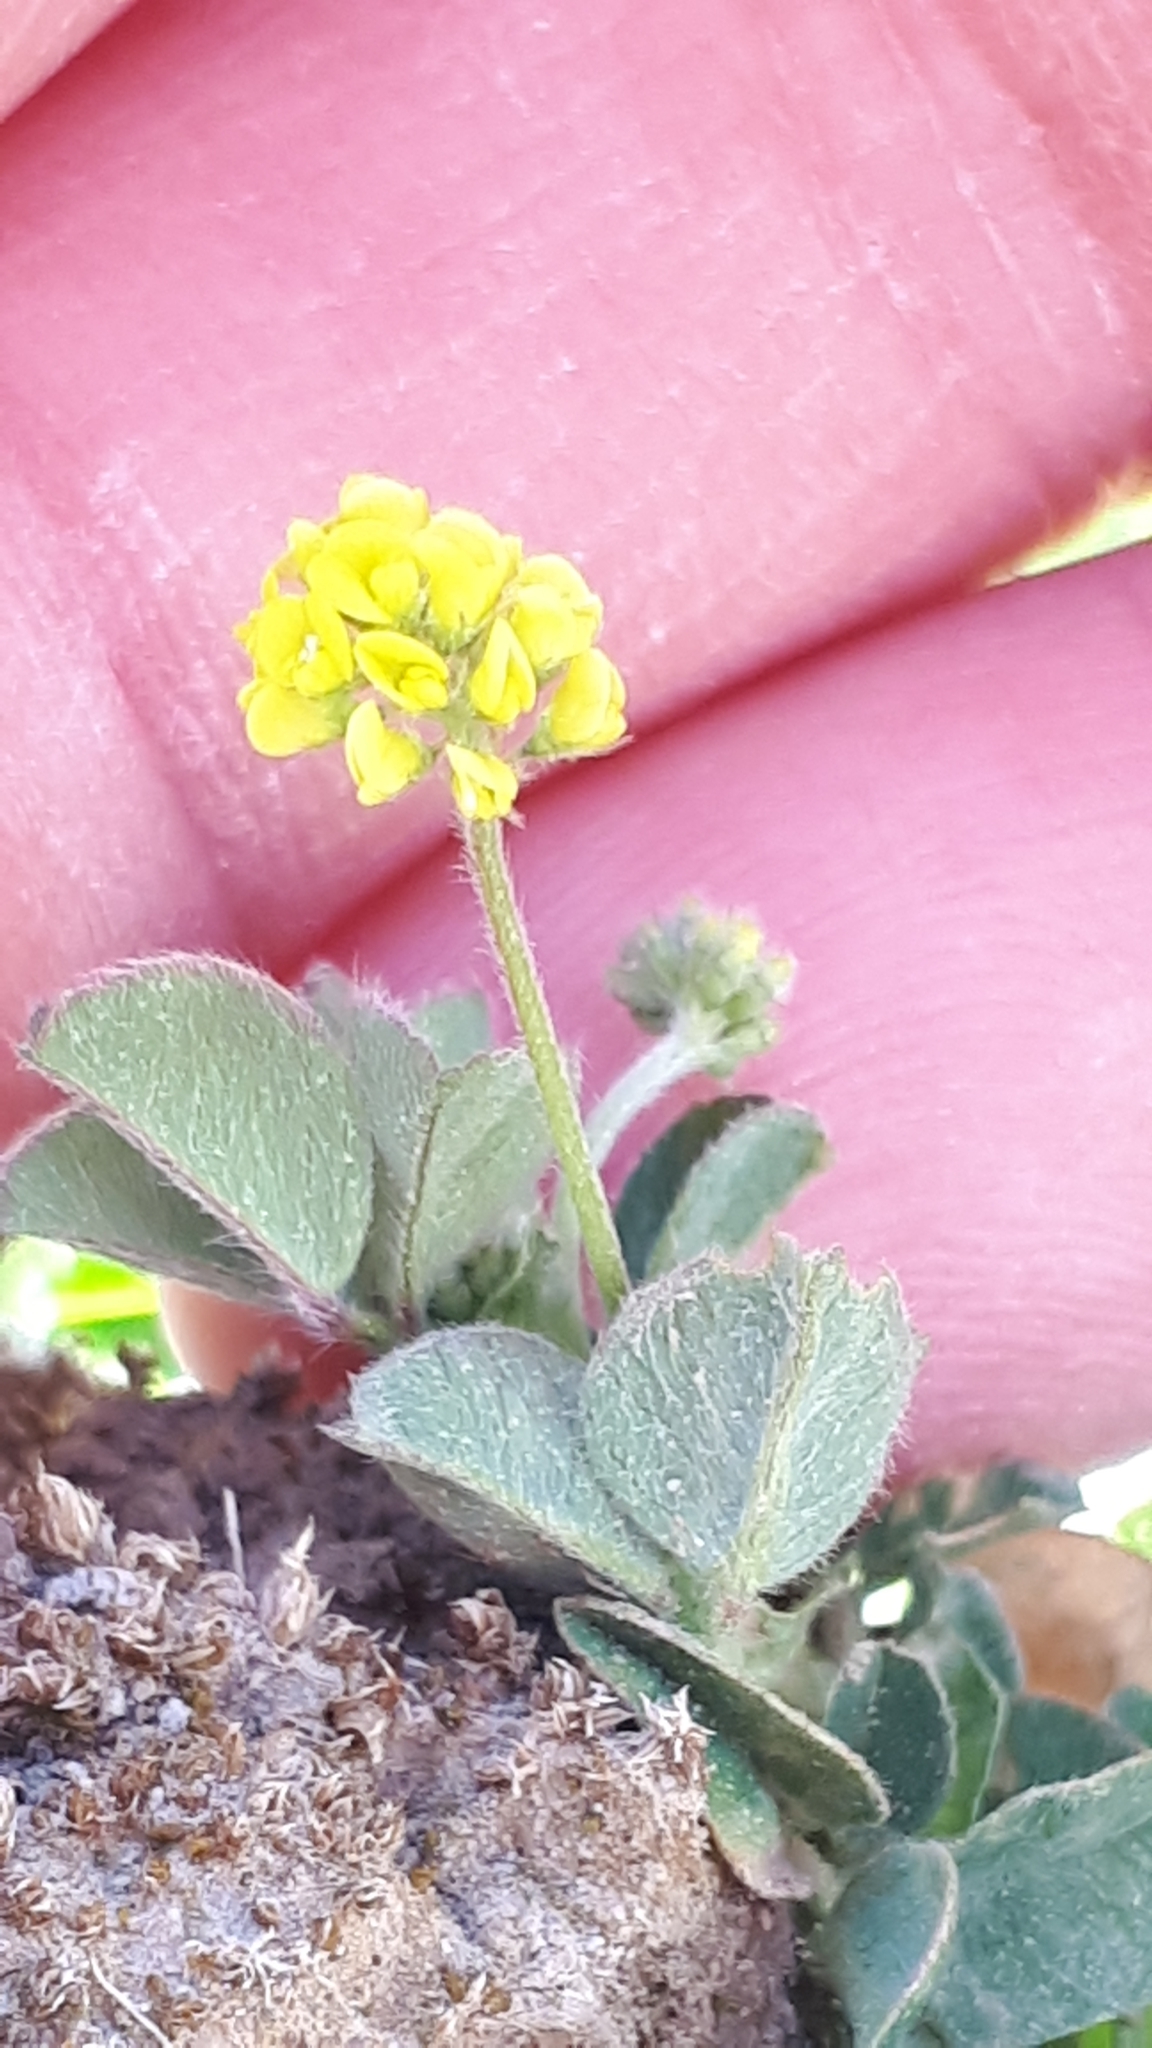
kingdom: Plantae
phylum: Tracheophyta
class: Magnoliopsida
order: Fabales
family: Fabaceae
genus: Medicago
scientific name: Medicago lupulina
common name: Black medick
